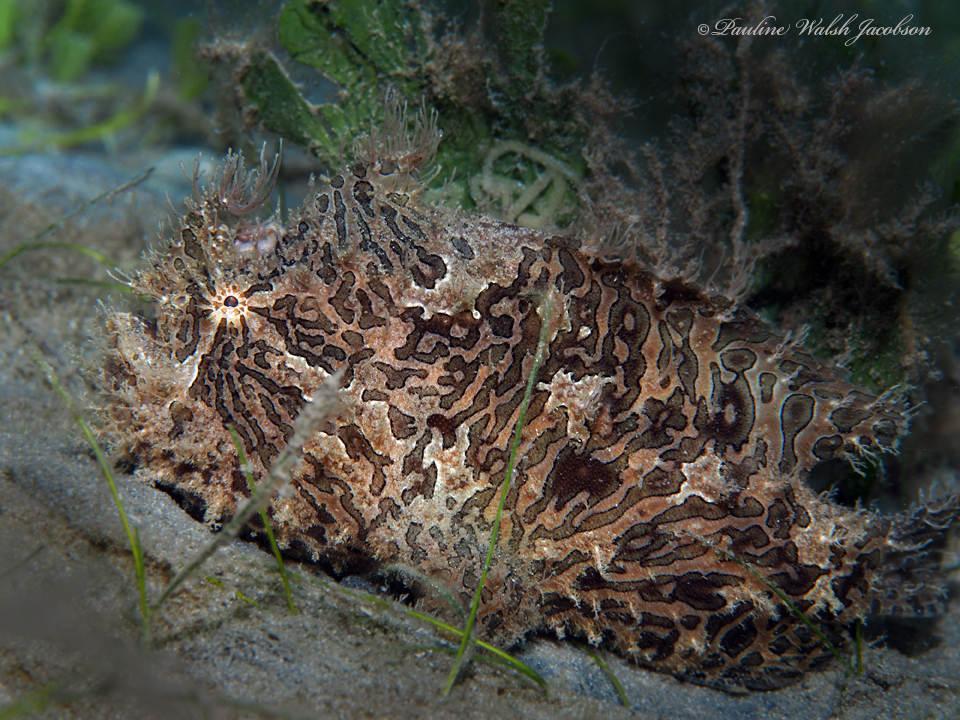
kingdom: Animalia
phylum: Chordata
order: Lophiiformes
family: Antennariidae
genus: Antennarius
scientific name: Antennarius striatus
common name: Striated frogfish
